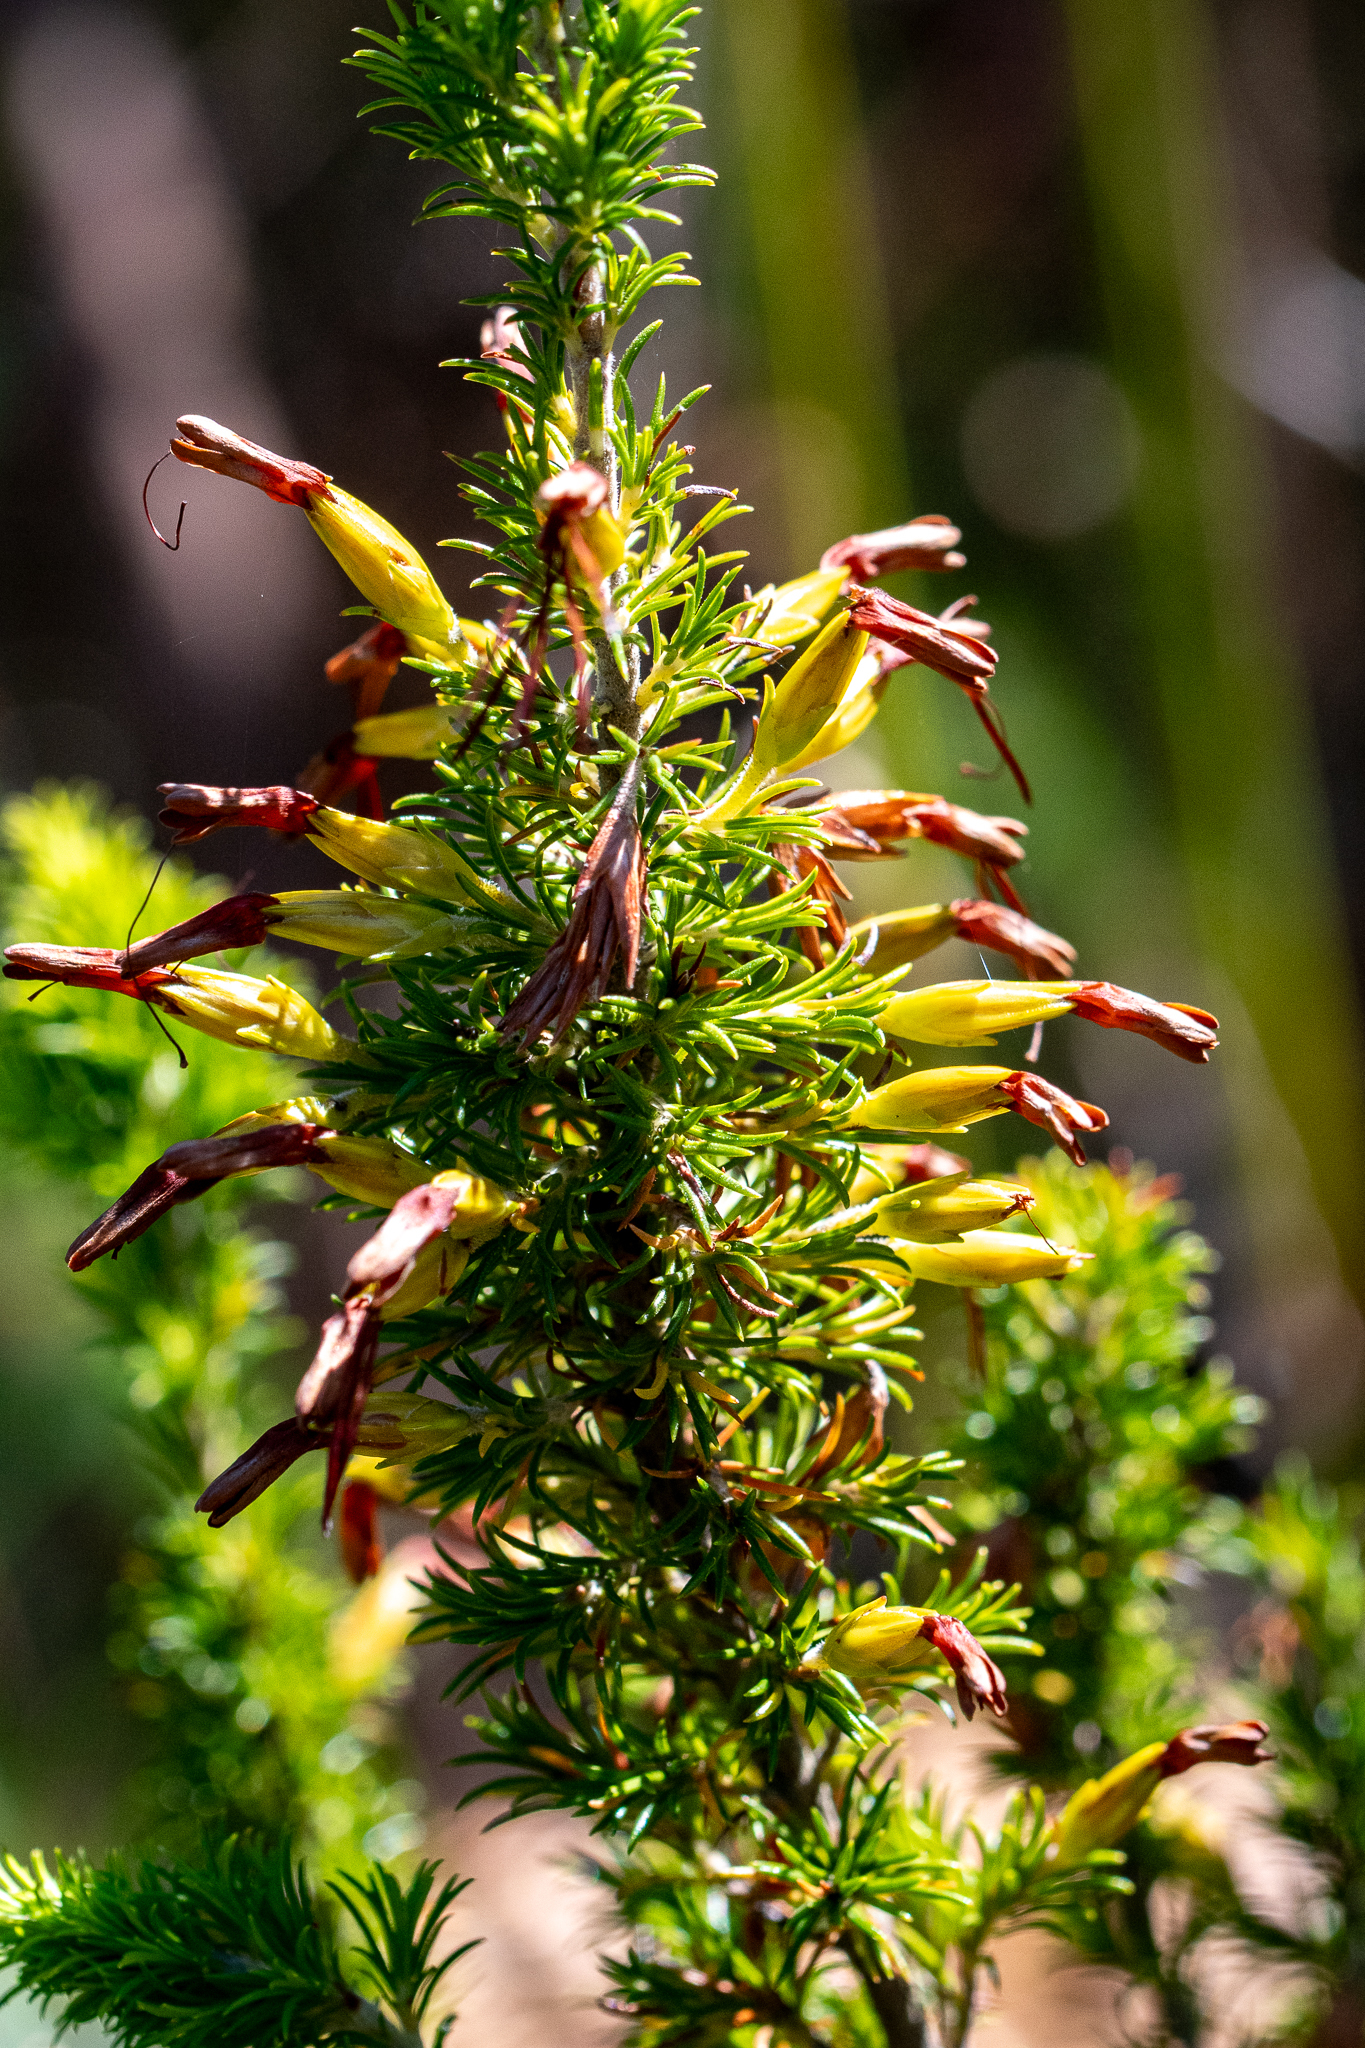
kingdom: Plantae
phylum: Tracheophyta
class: Magnoliopsida
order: Ericales
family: Ericaceae
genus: Erica
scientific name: Erica coccinea
